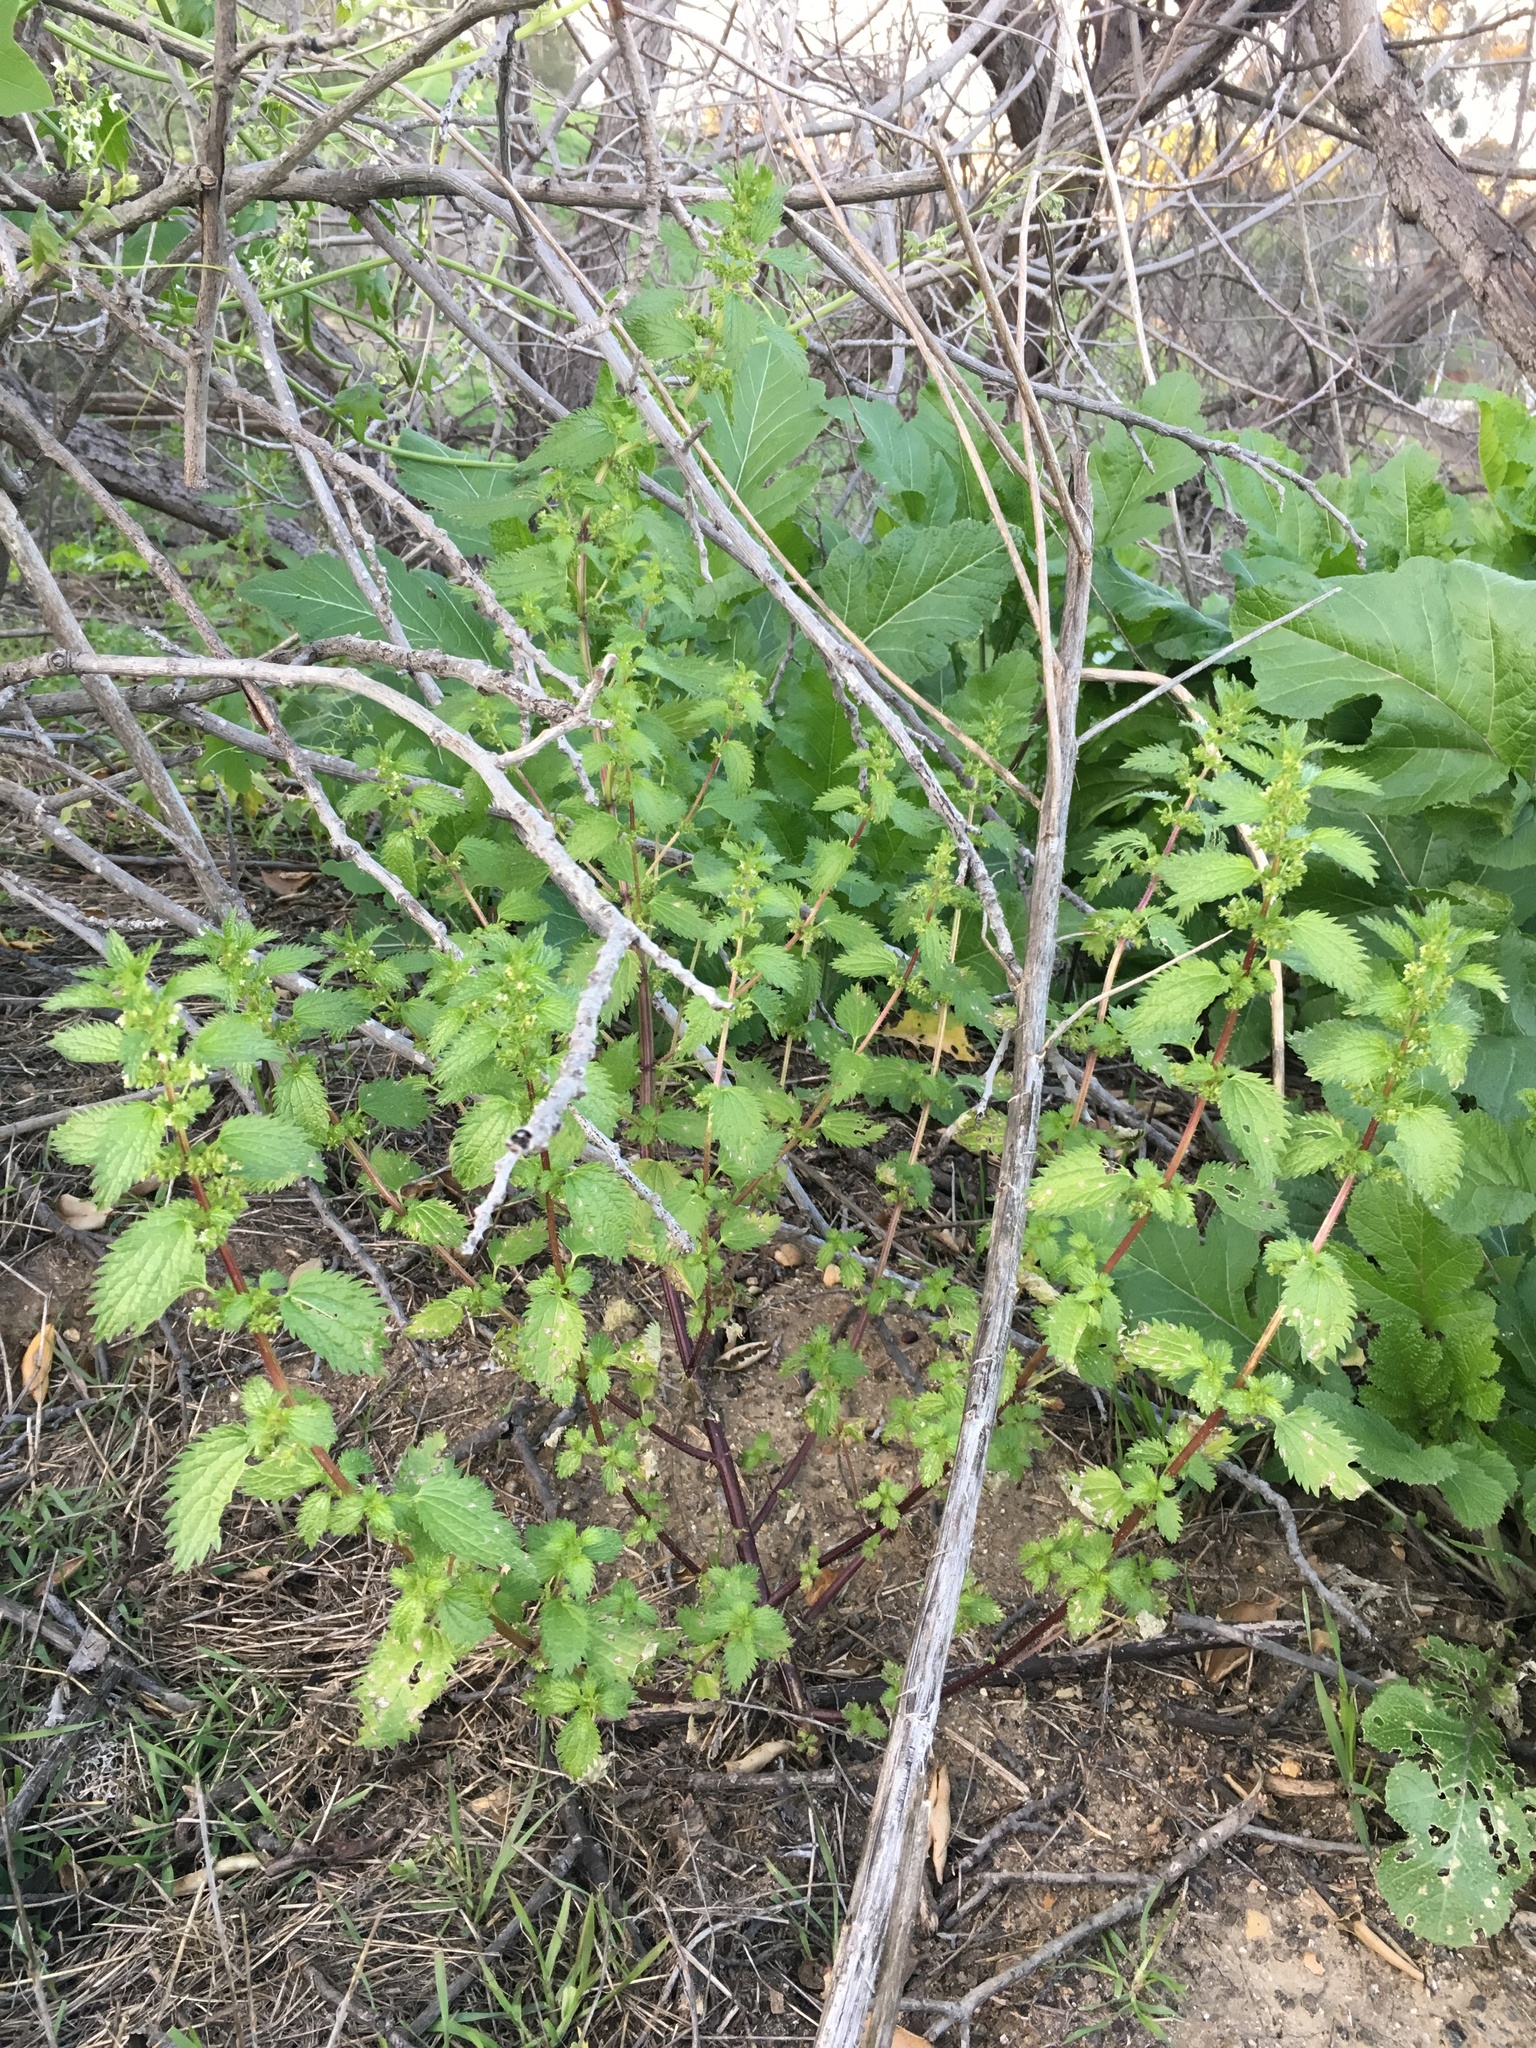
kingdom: Plantae
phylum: Tracheophyta
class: Magnoliopsida
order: Rosales
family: Urticaceae
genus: Urtica
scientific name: Urtica urens
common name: Dwarf nettle
